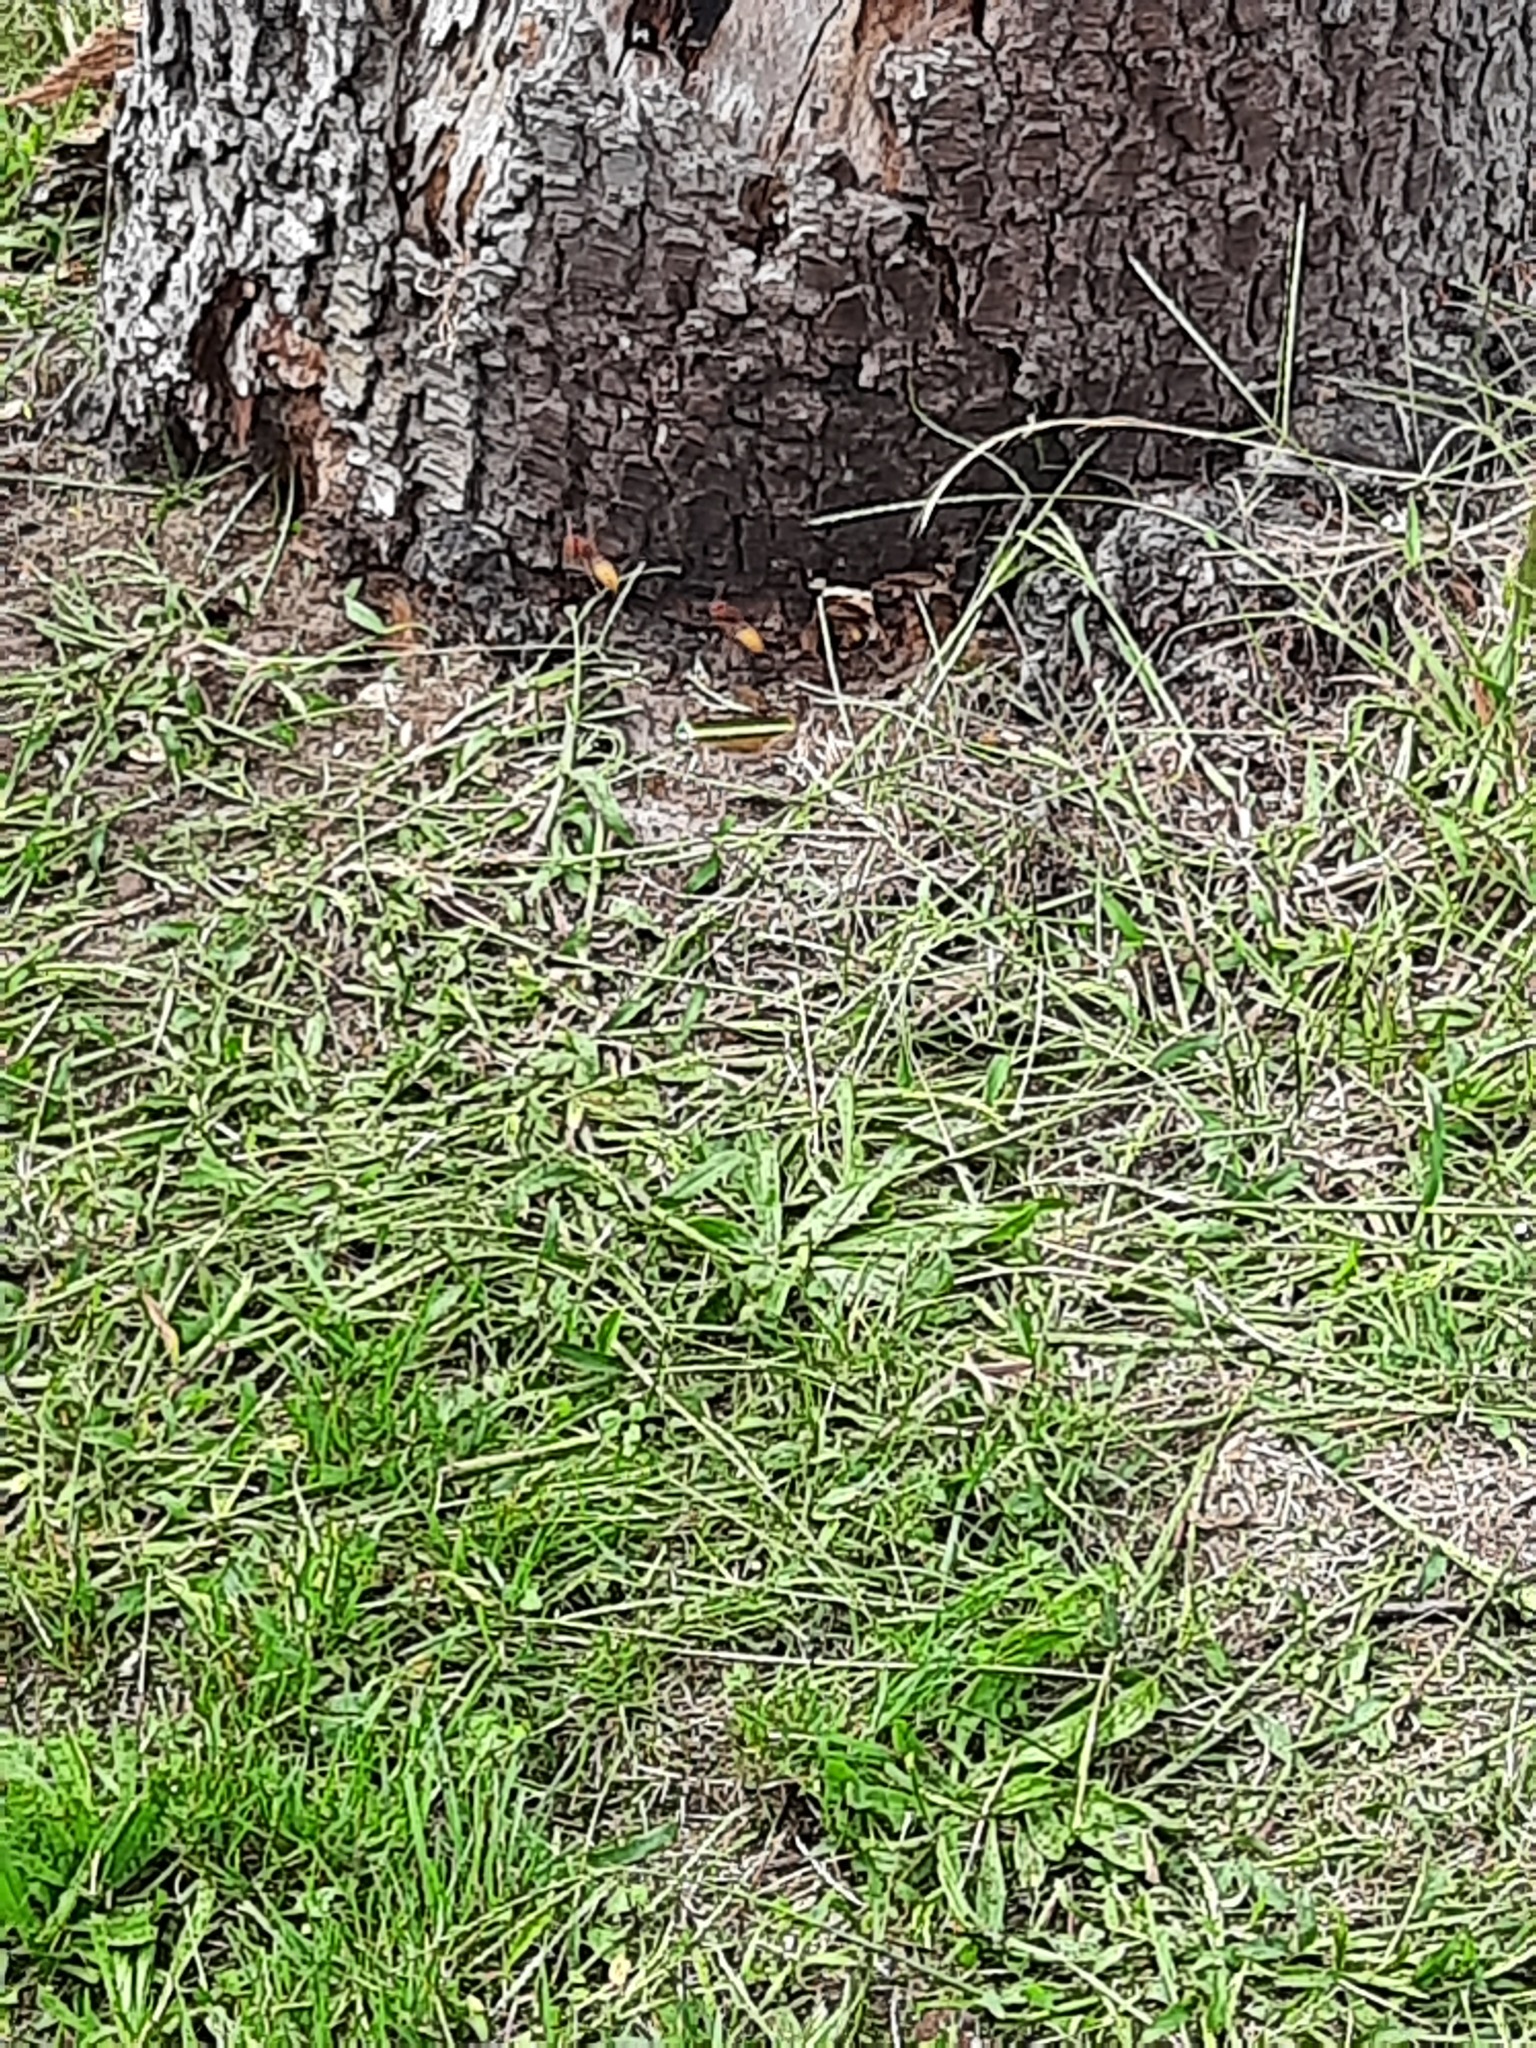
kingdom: Animalia
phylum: Arthropoda
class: Insecta
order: Hymenoptera
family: Vespidae
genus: Vespa
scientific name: Vespa crabro
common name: Hornet
